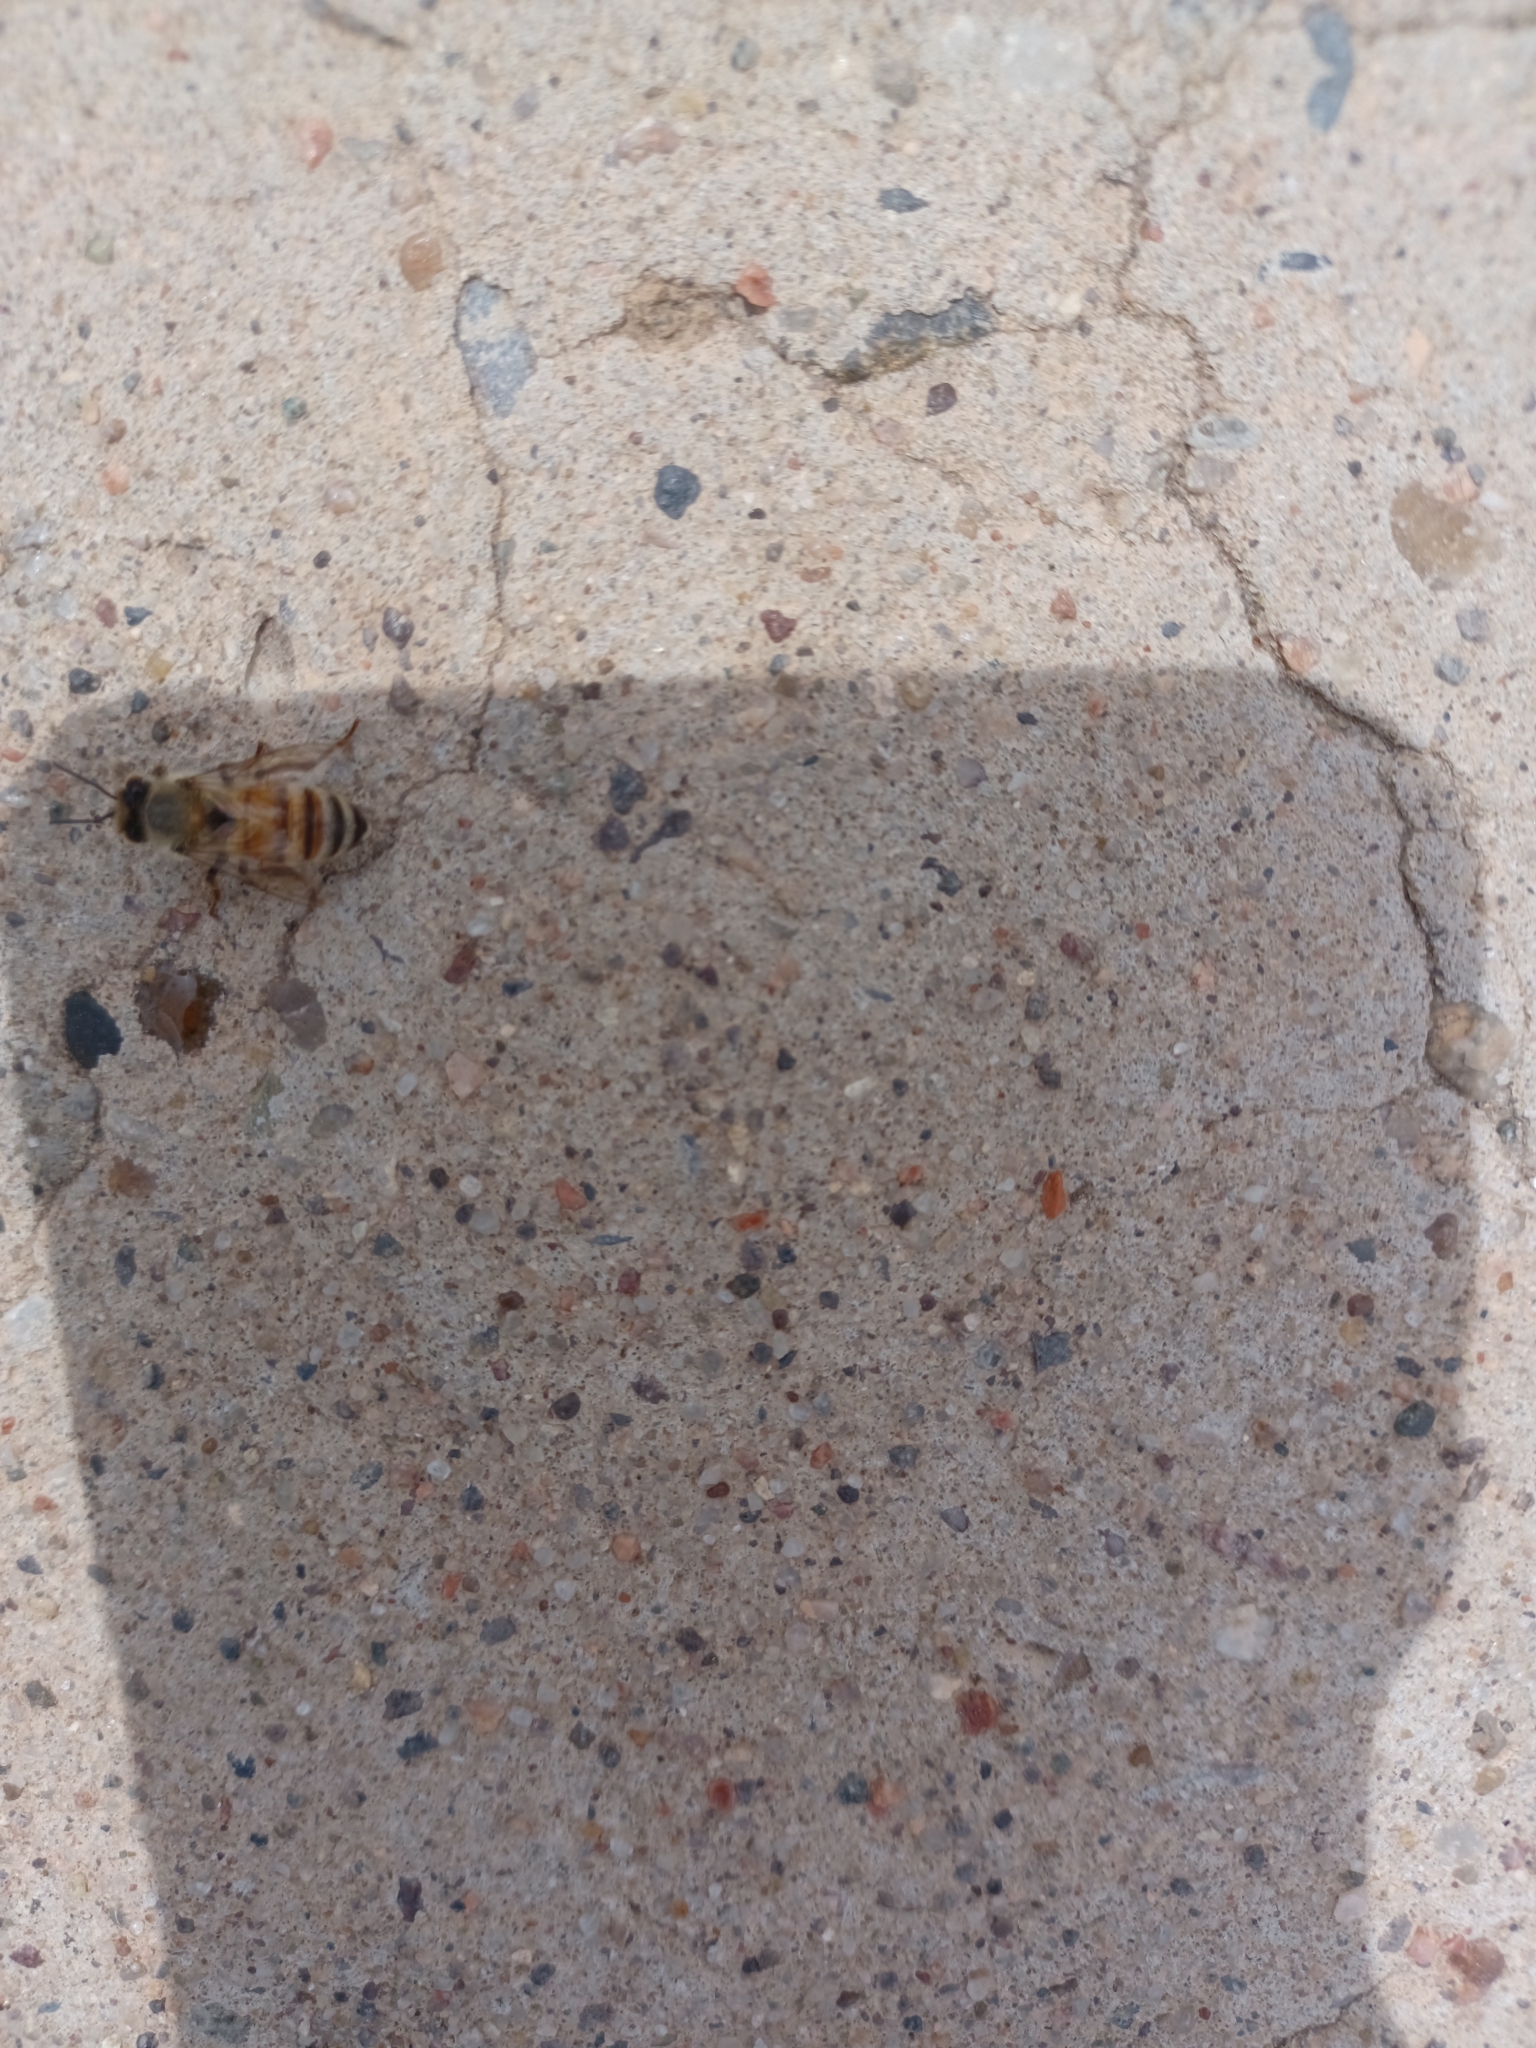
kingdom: Animalia
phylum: Arthropoda
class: Insecta
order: Hymenoptera
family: Apidae
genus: Apis
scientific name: Apis mellifera
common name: Honey bee
